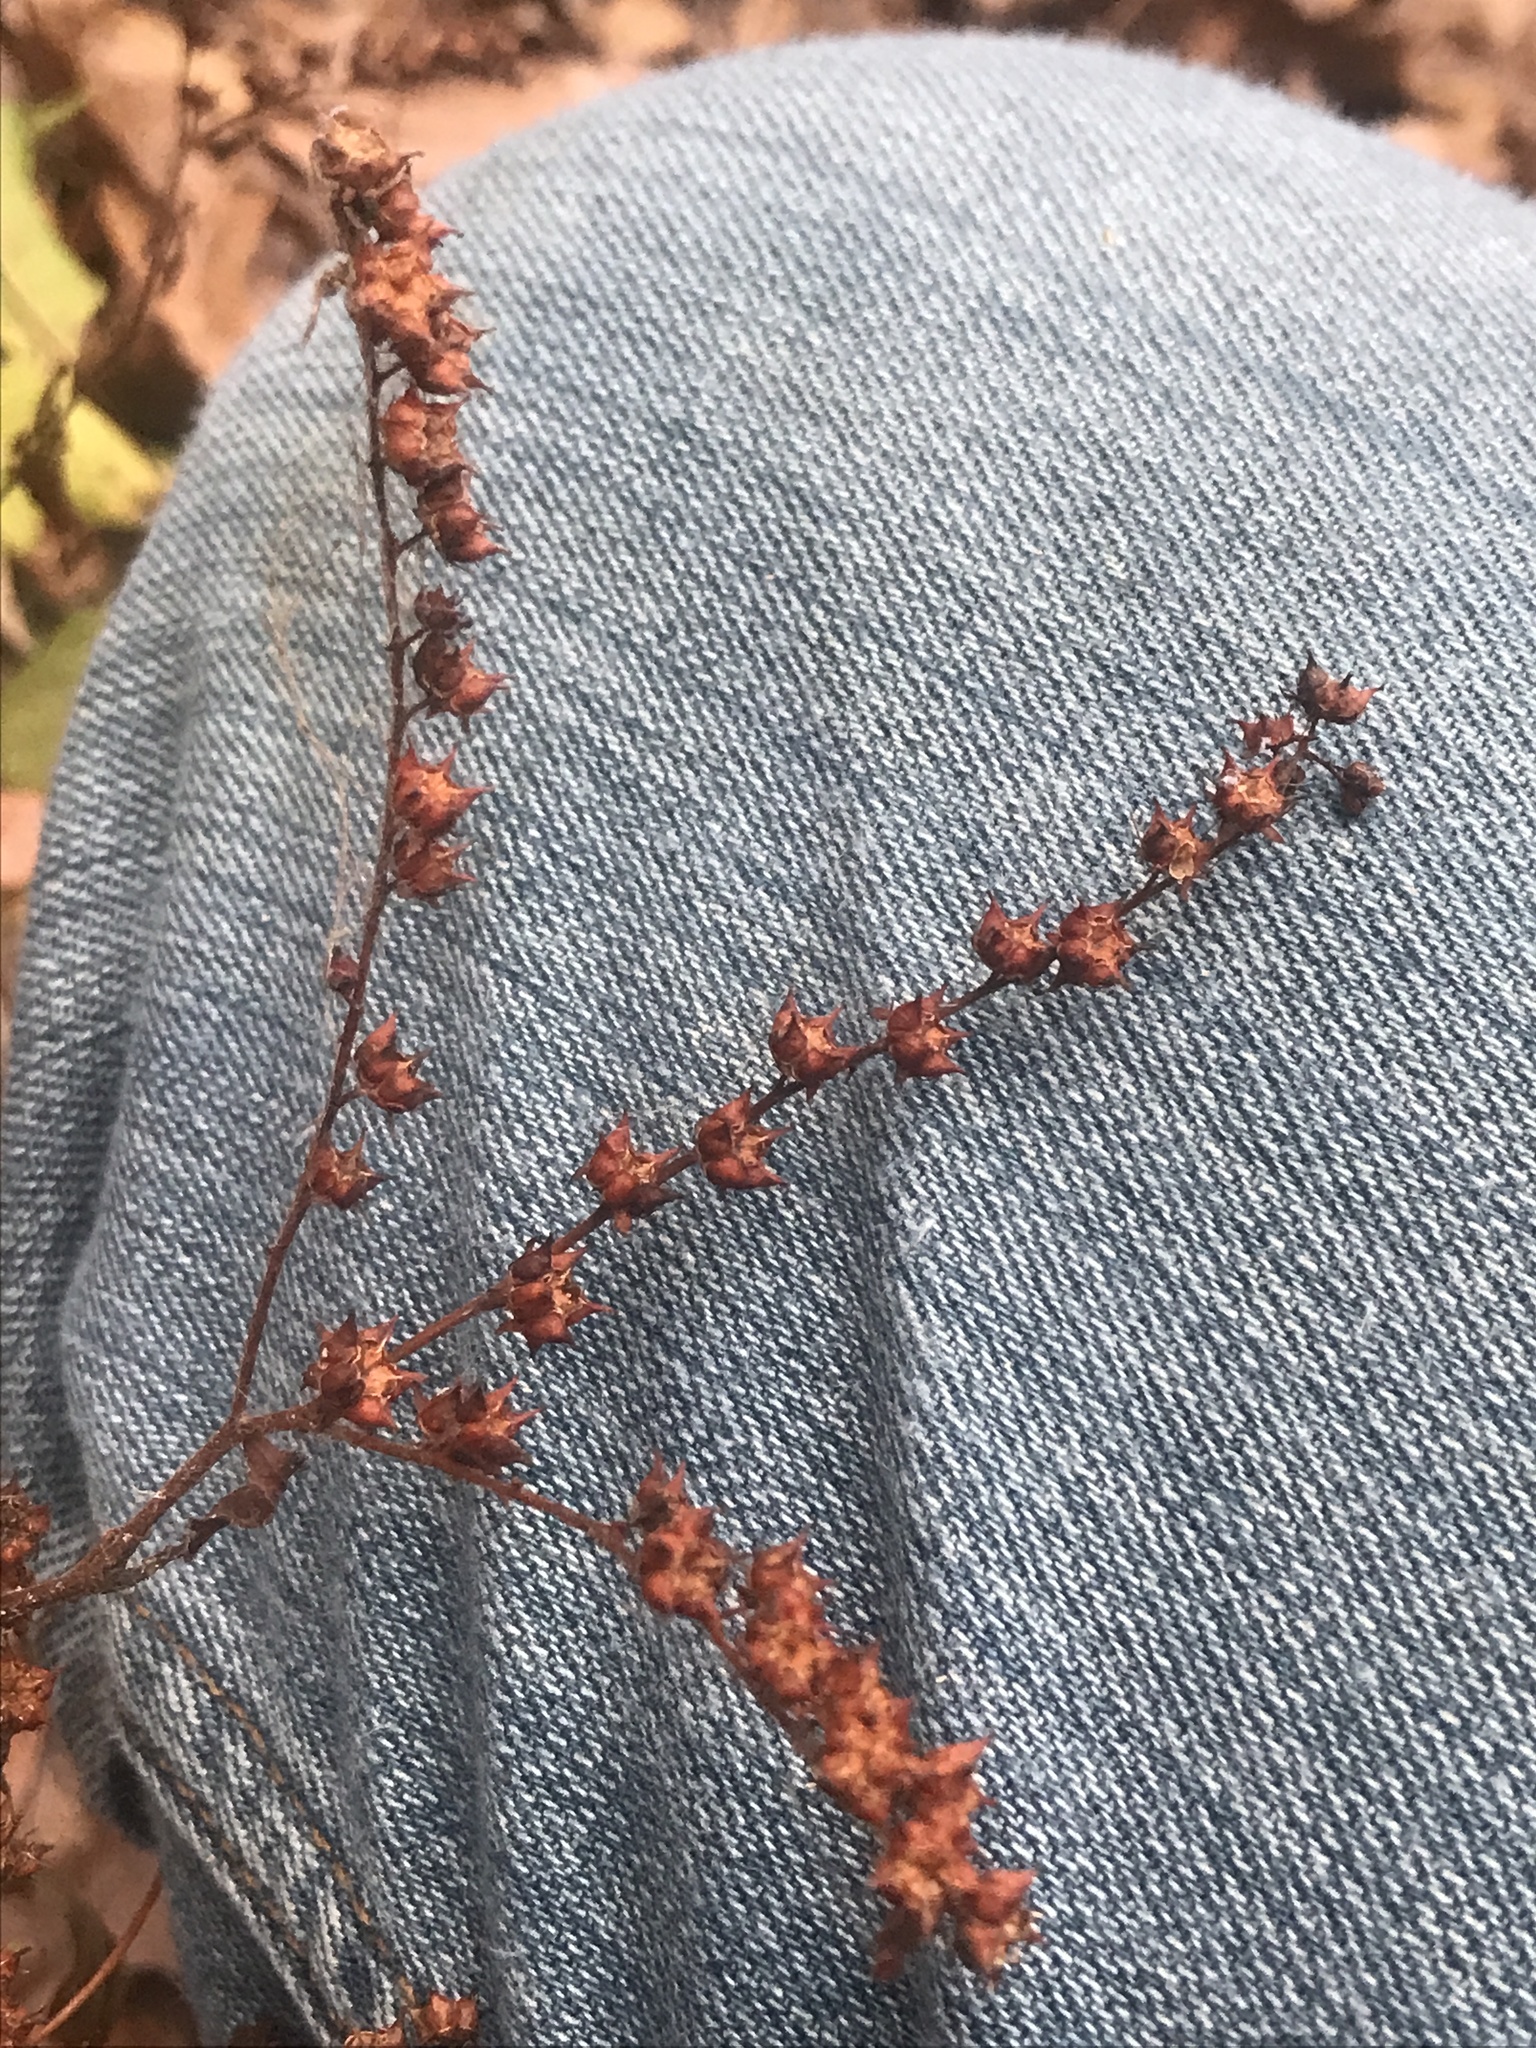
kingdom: Plantae
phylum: Tracheophyta
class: Magnoliopsida
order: Saxifragales
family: Penthoraceae
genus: Penthorum
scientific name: Penthorum sedoides
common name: Ditch stonecrop
